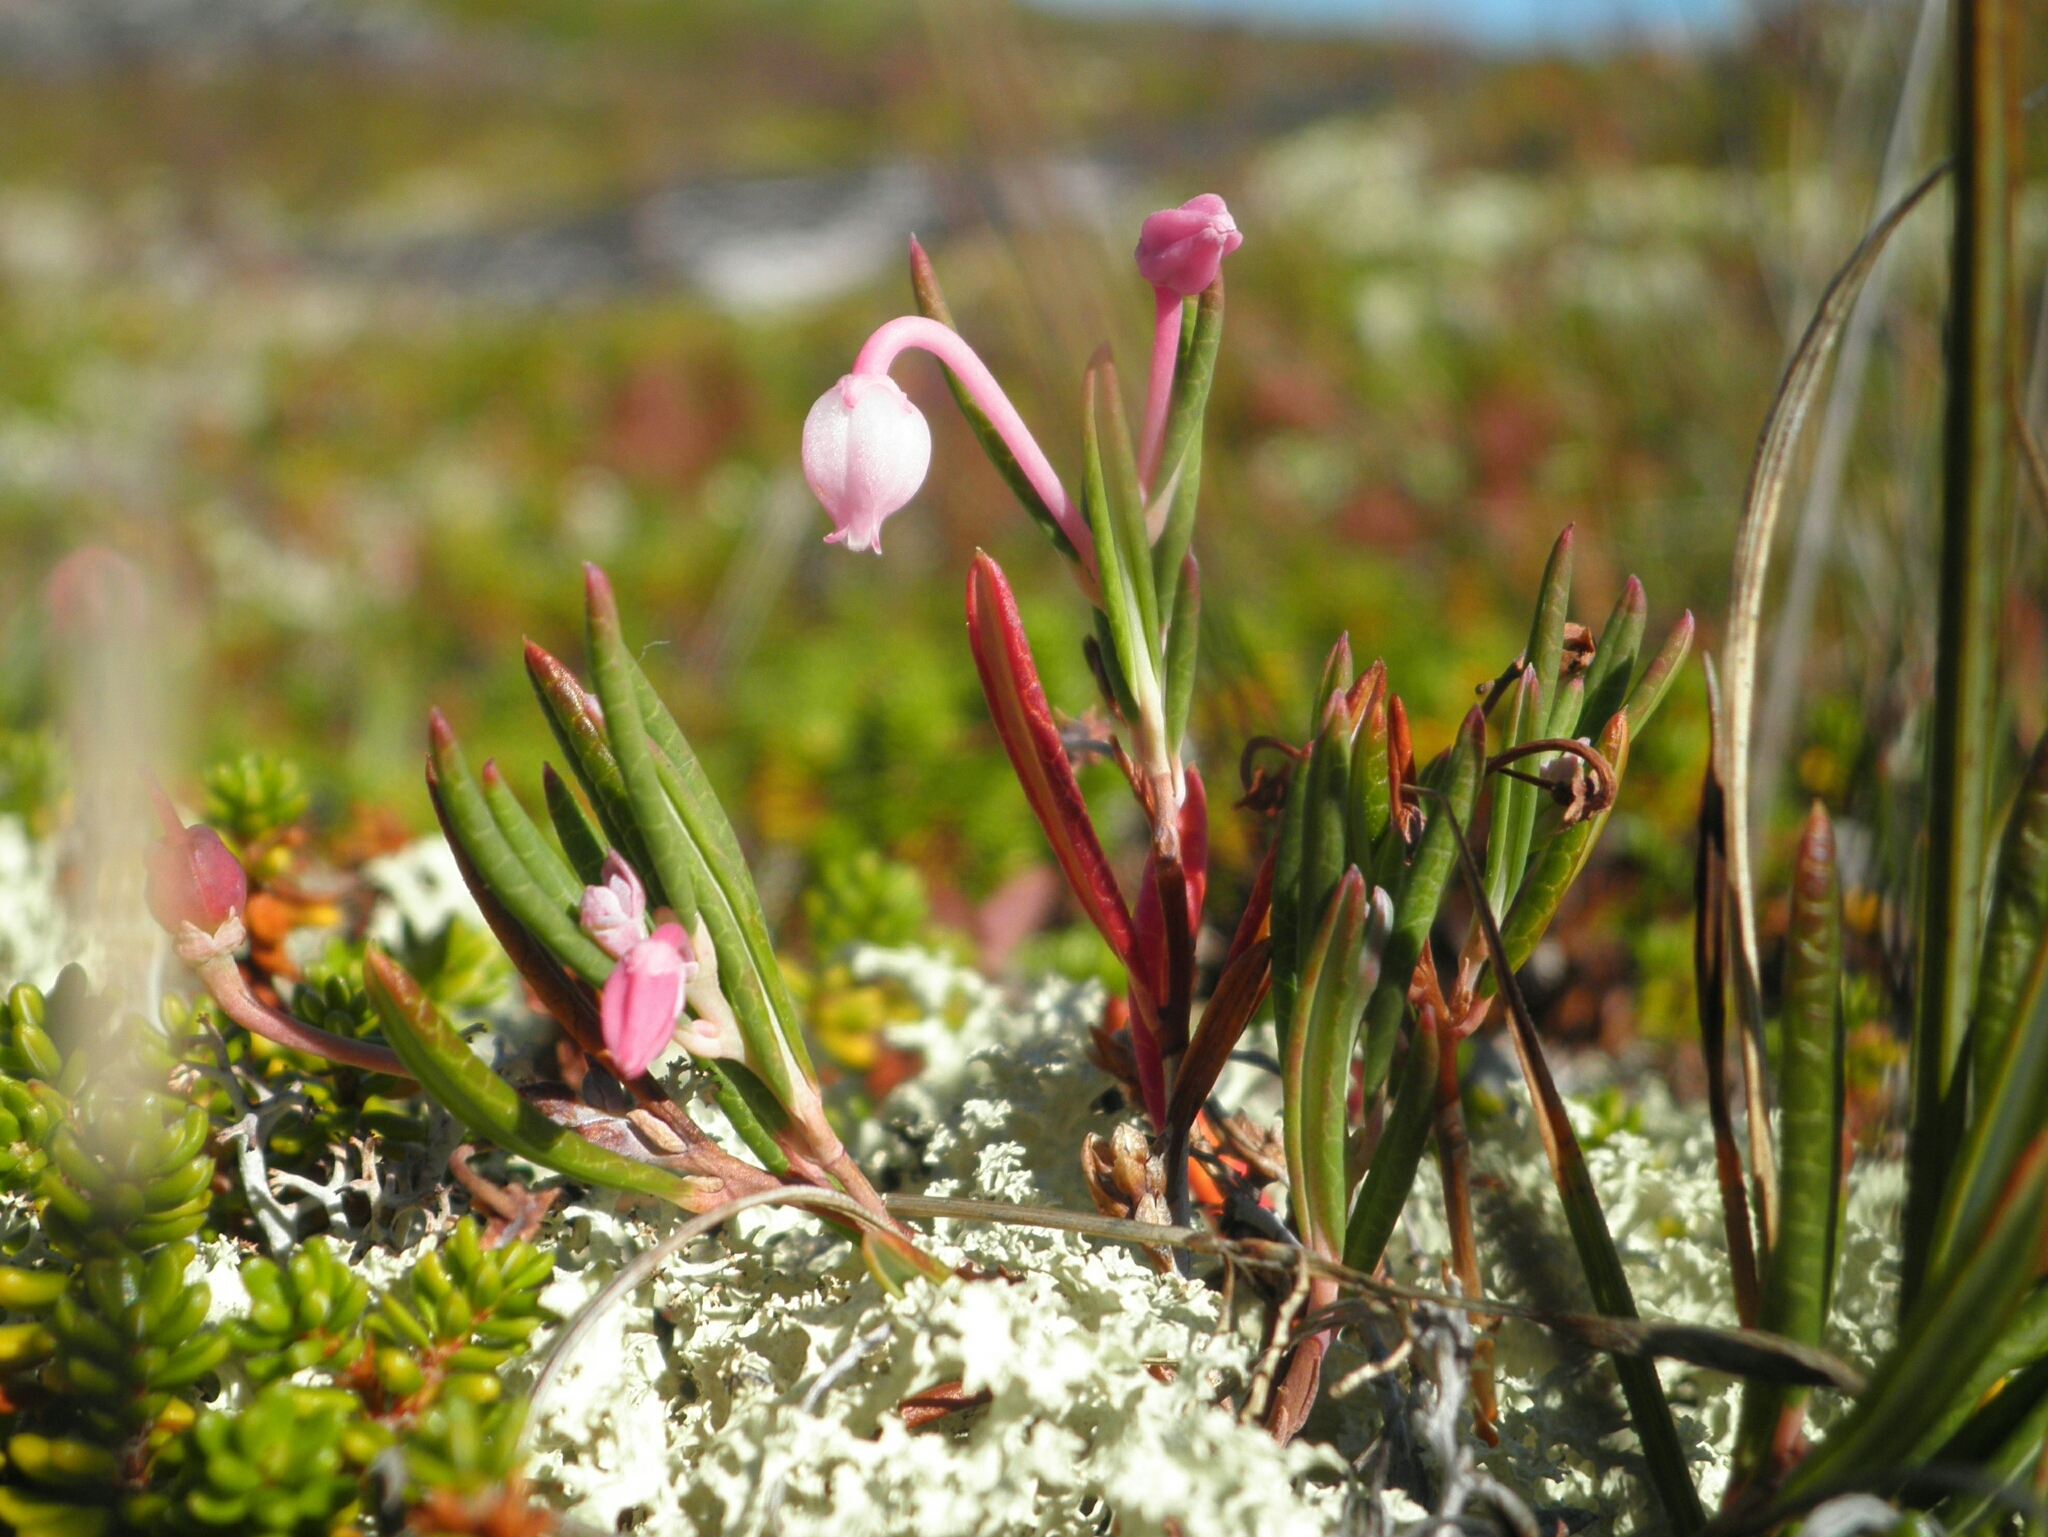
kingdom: Plantae
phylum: Tracheophyta
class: Magnoliopsida
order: Ericales
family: Ericaceae
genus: Andromeda
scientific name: Andromeda polifolia
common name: Bog-rosemary
